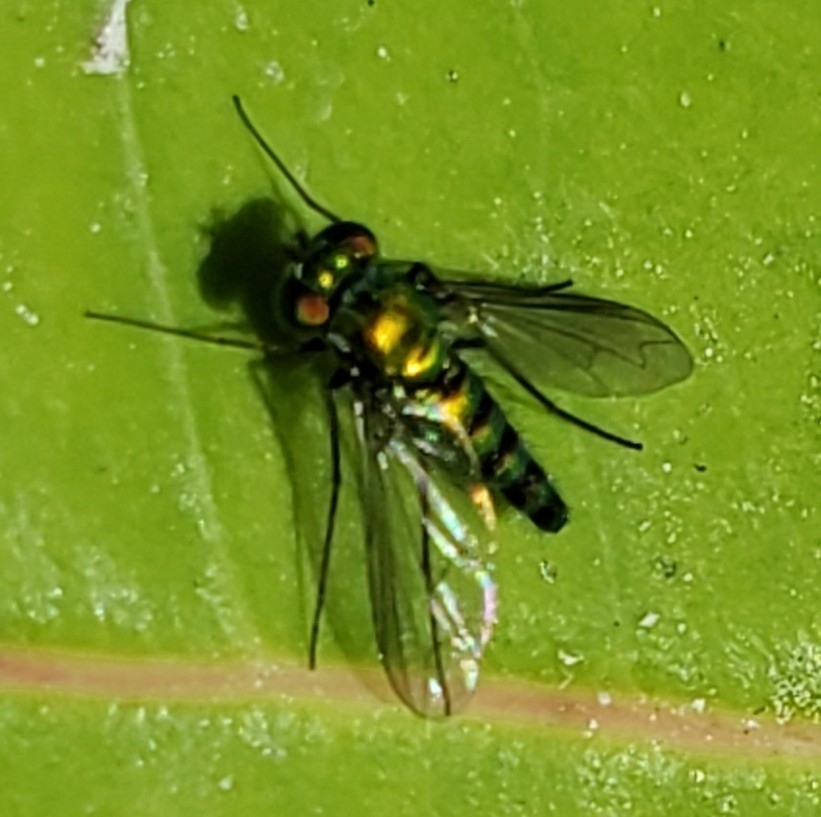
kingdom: Animalia
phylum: Arthropoda
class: Insecta
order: Diptera
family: Dolichopodidae
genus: Condylostylus
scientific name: Condylostylus longicornis
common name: Long-legged fly
